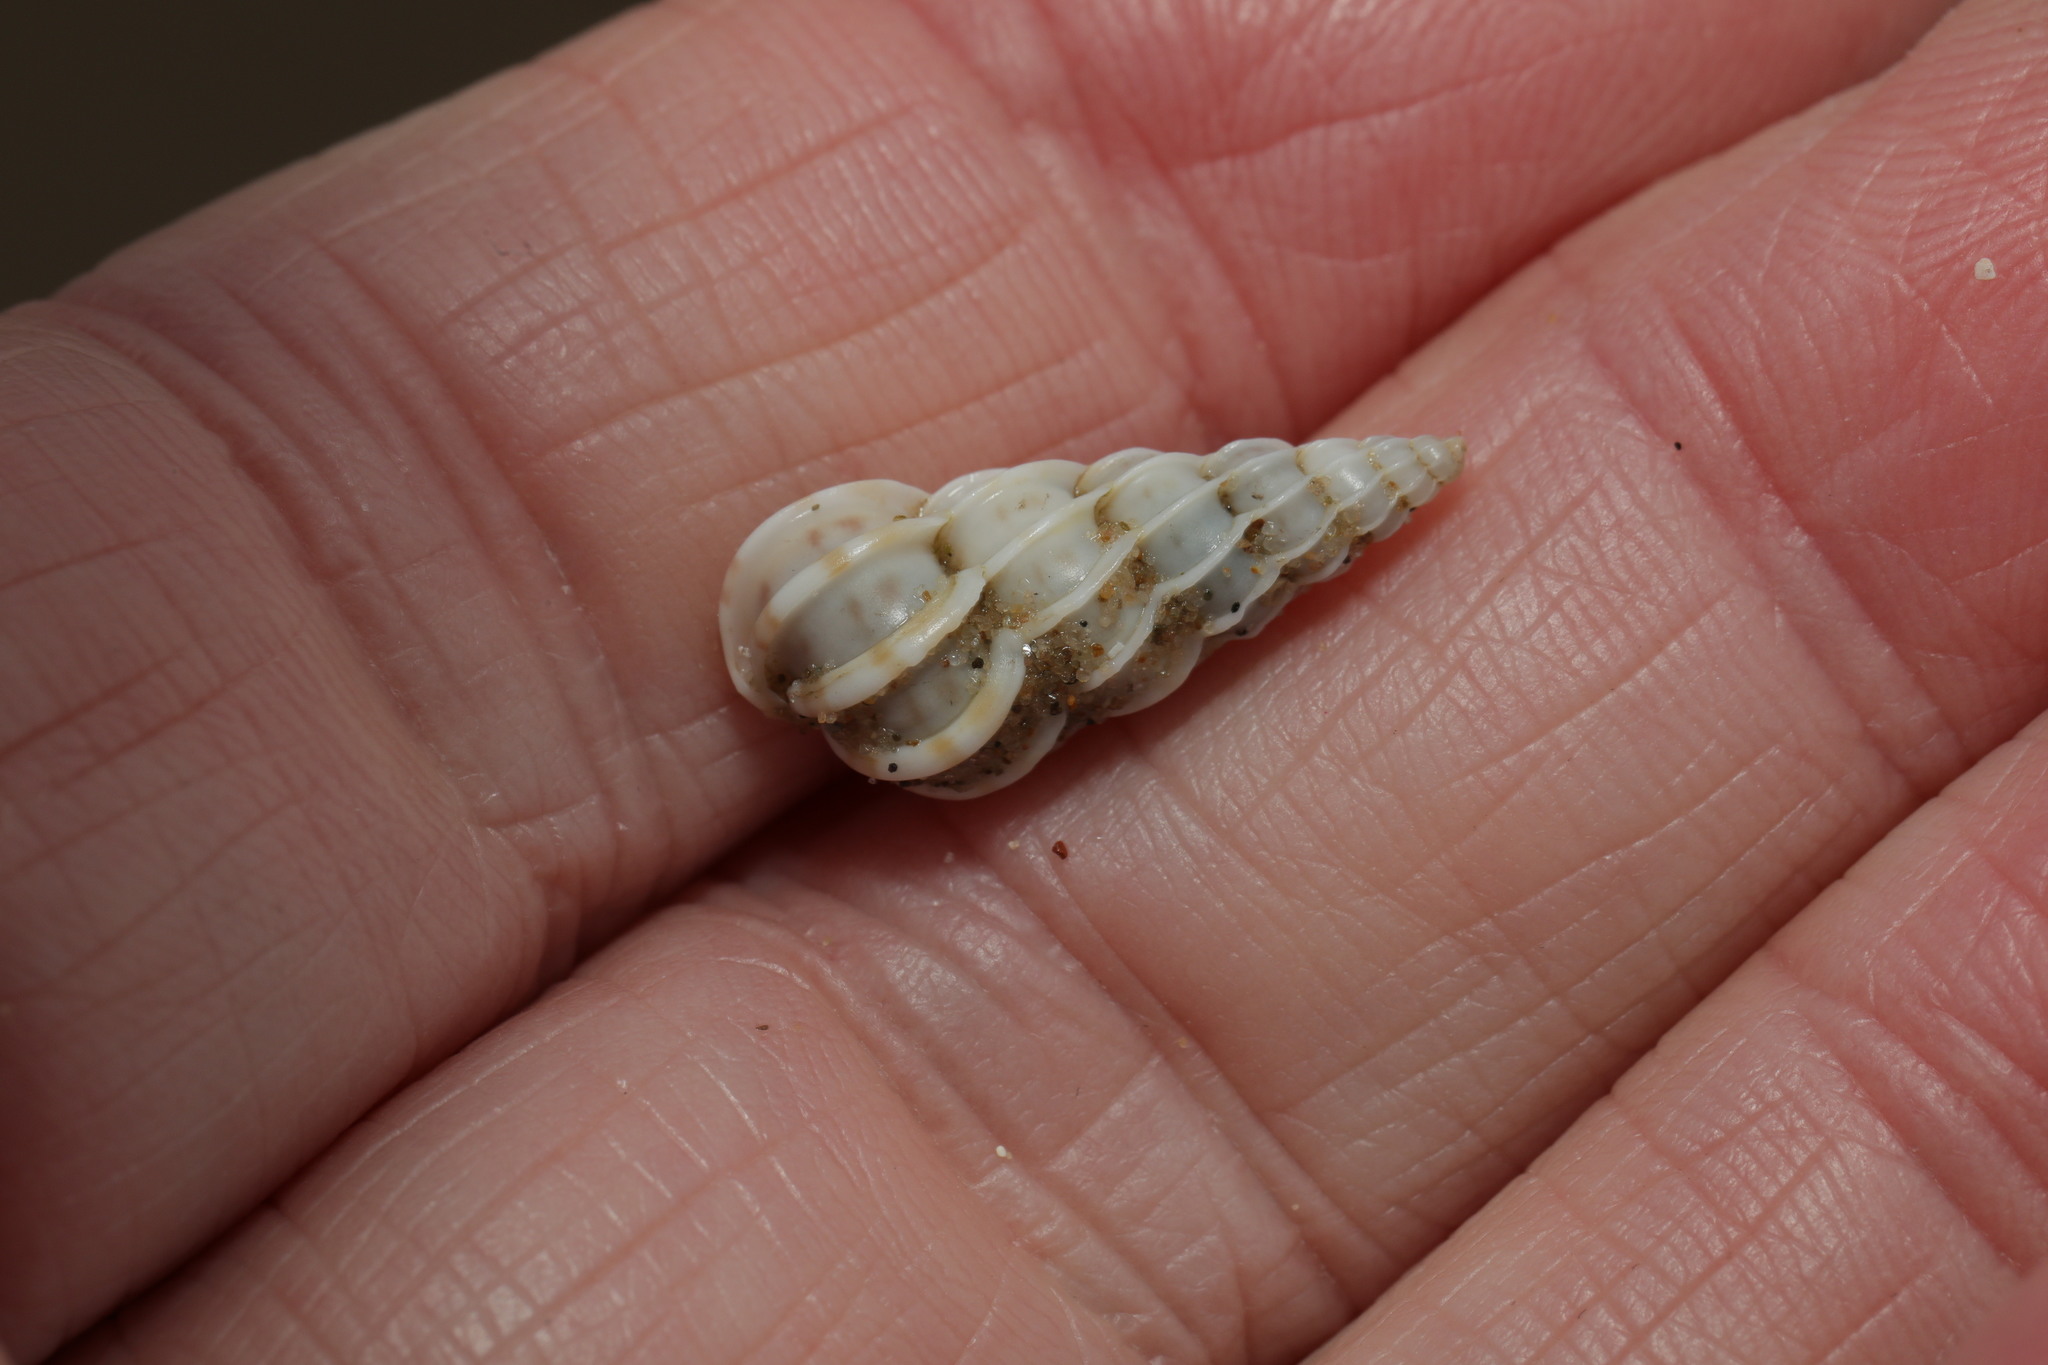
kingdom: Animalia
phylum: Mollusca
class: Gastropoda
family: Epitoniidae
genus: Epitonium
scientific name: Epitonium clathrus
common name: Common wentletrap
